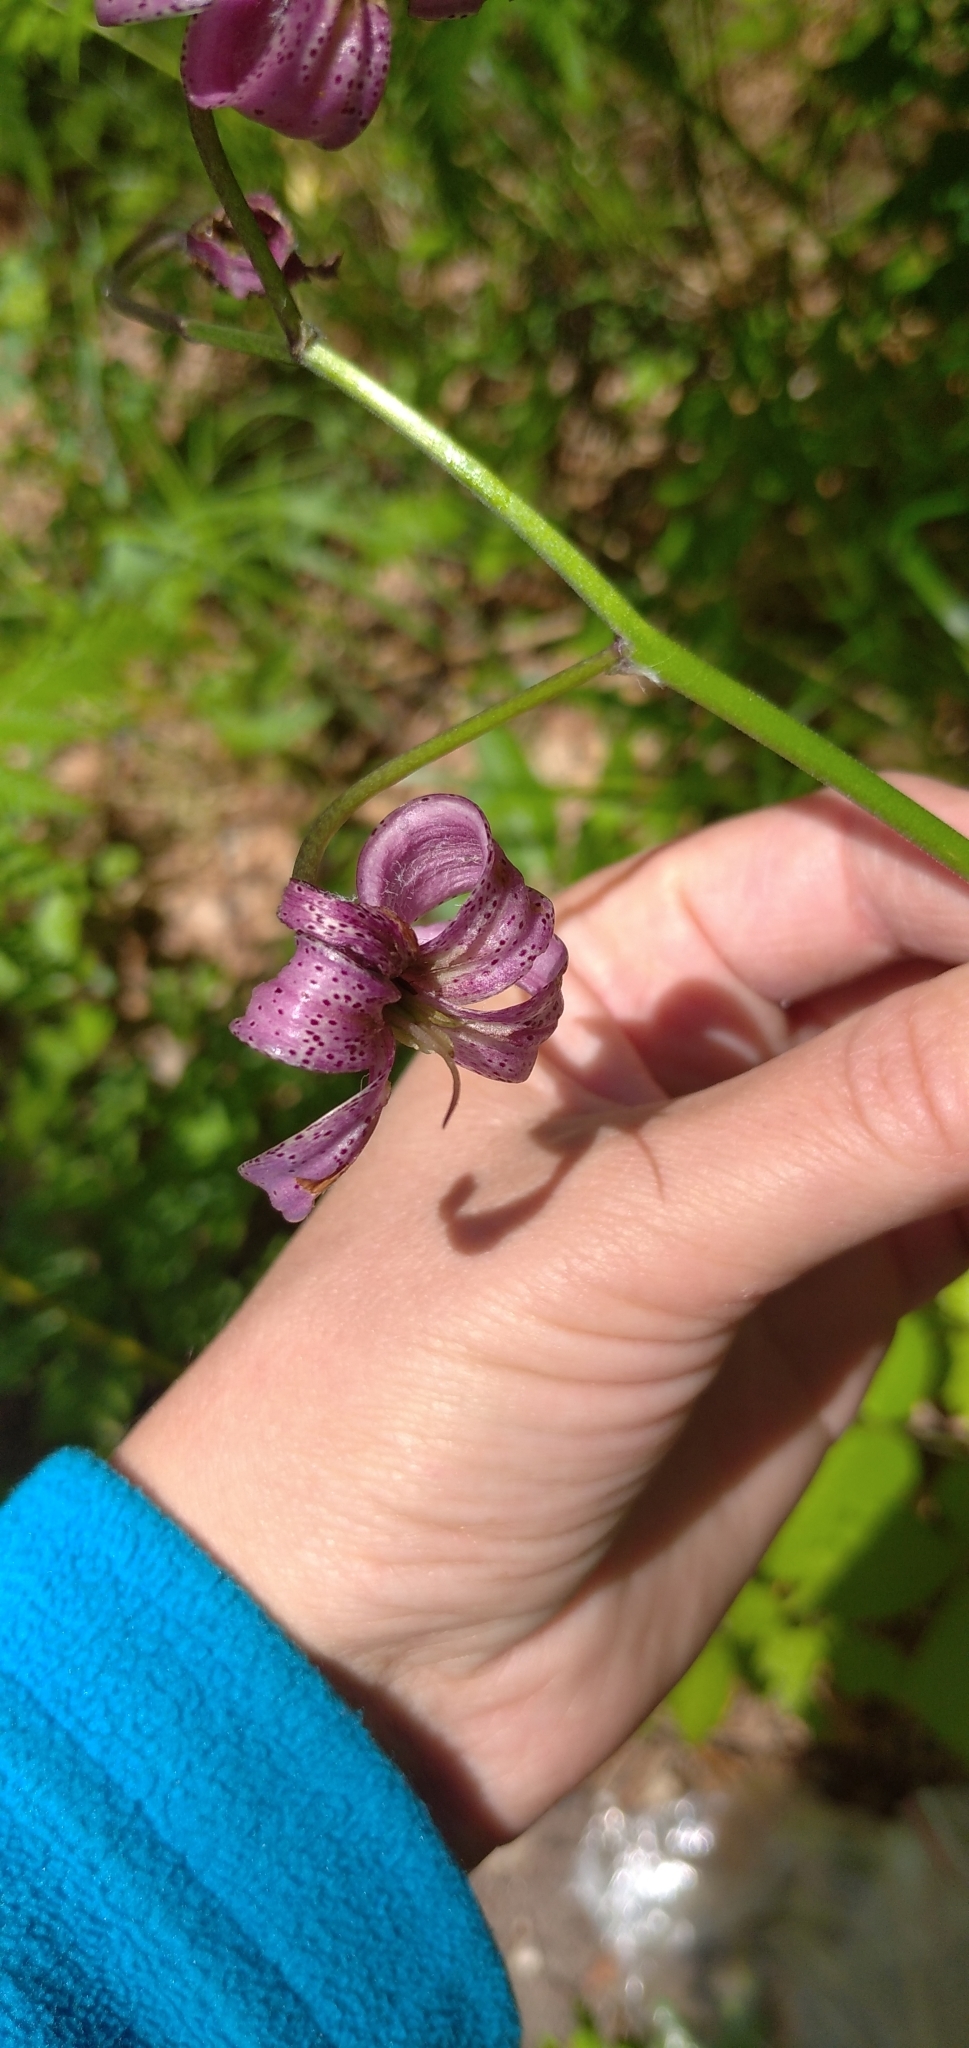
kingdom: Plantae
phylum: Tracheophyta
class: Liliopsida
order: Liliales
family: Liliaceae
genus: Lilium
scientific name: Lilium martagon
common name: Martagon lily
